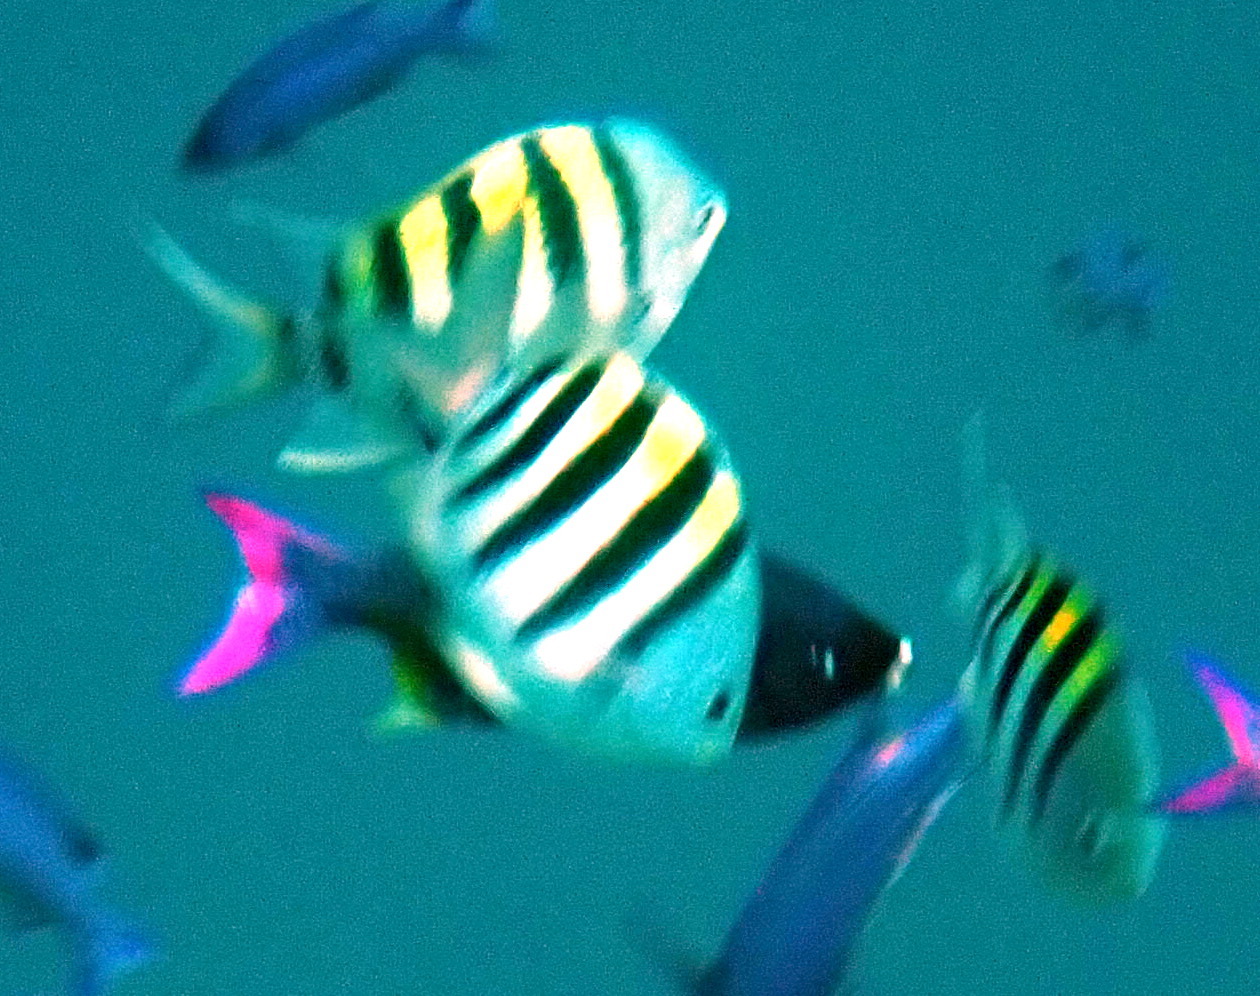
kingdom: Animalia
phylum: Chordata
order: Perciformes
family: Pomacentridae
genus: Abudefduf
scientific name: Abudefduf saxatilis
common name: Sergeant major
